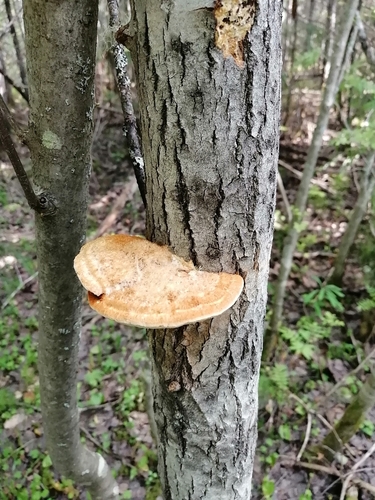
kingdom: Fungi
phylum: Basidiomycota
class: Agaricomycetes
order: Hymenochaetales
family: Hymenochaetaceae
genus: Inocutis
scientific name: Inocutis rheades
